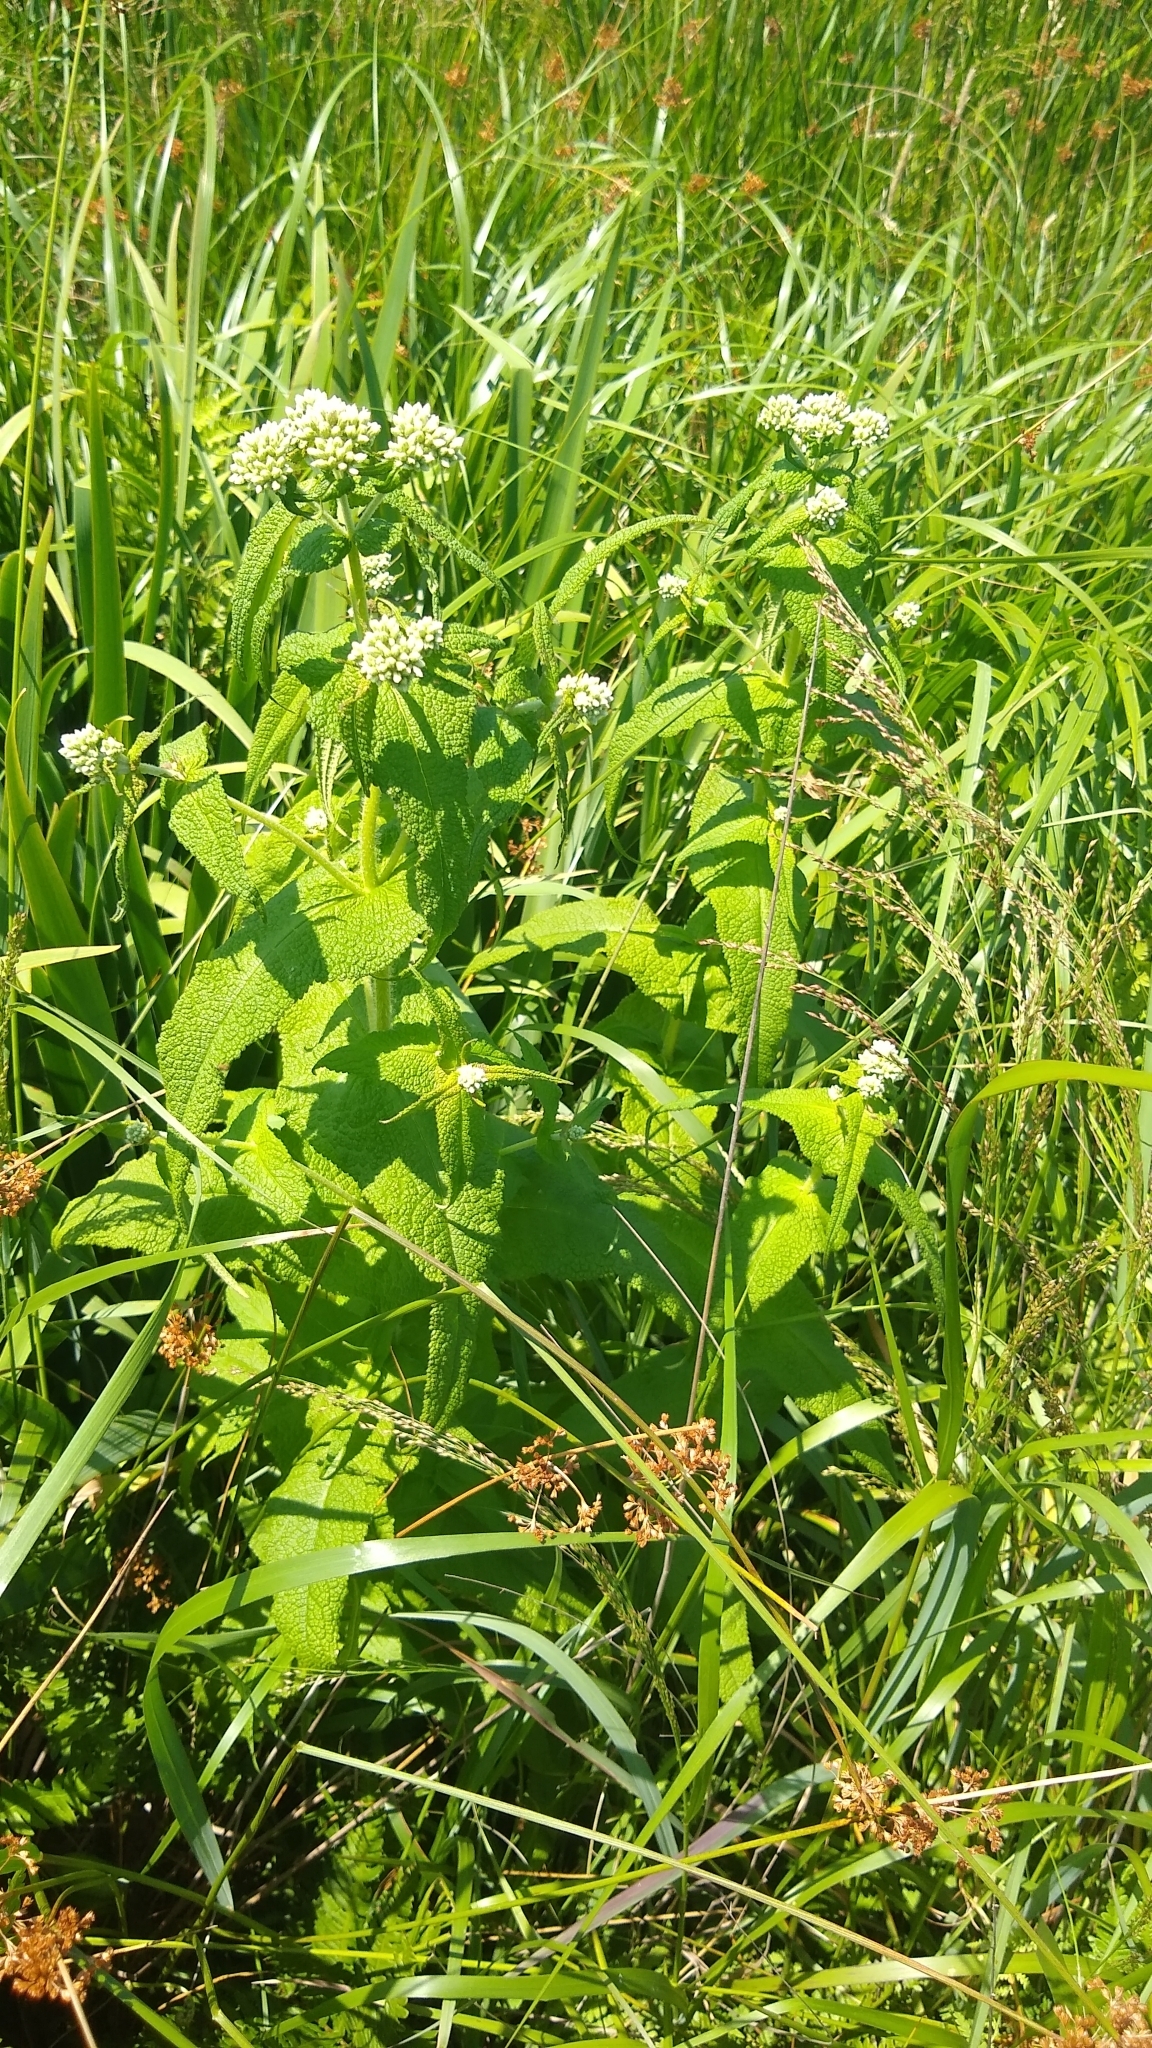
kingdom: Plantae
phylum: Tracheophyta
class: Magnoliopsida
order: Asterales
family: Asteraceae
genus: Eupatorium
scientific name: Eupatorium perfoliatum
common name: Boneset
